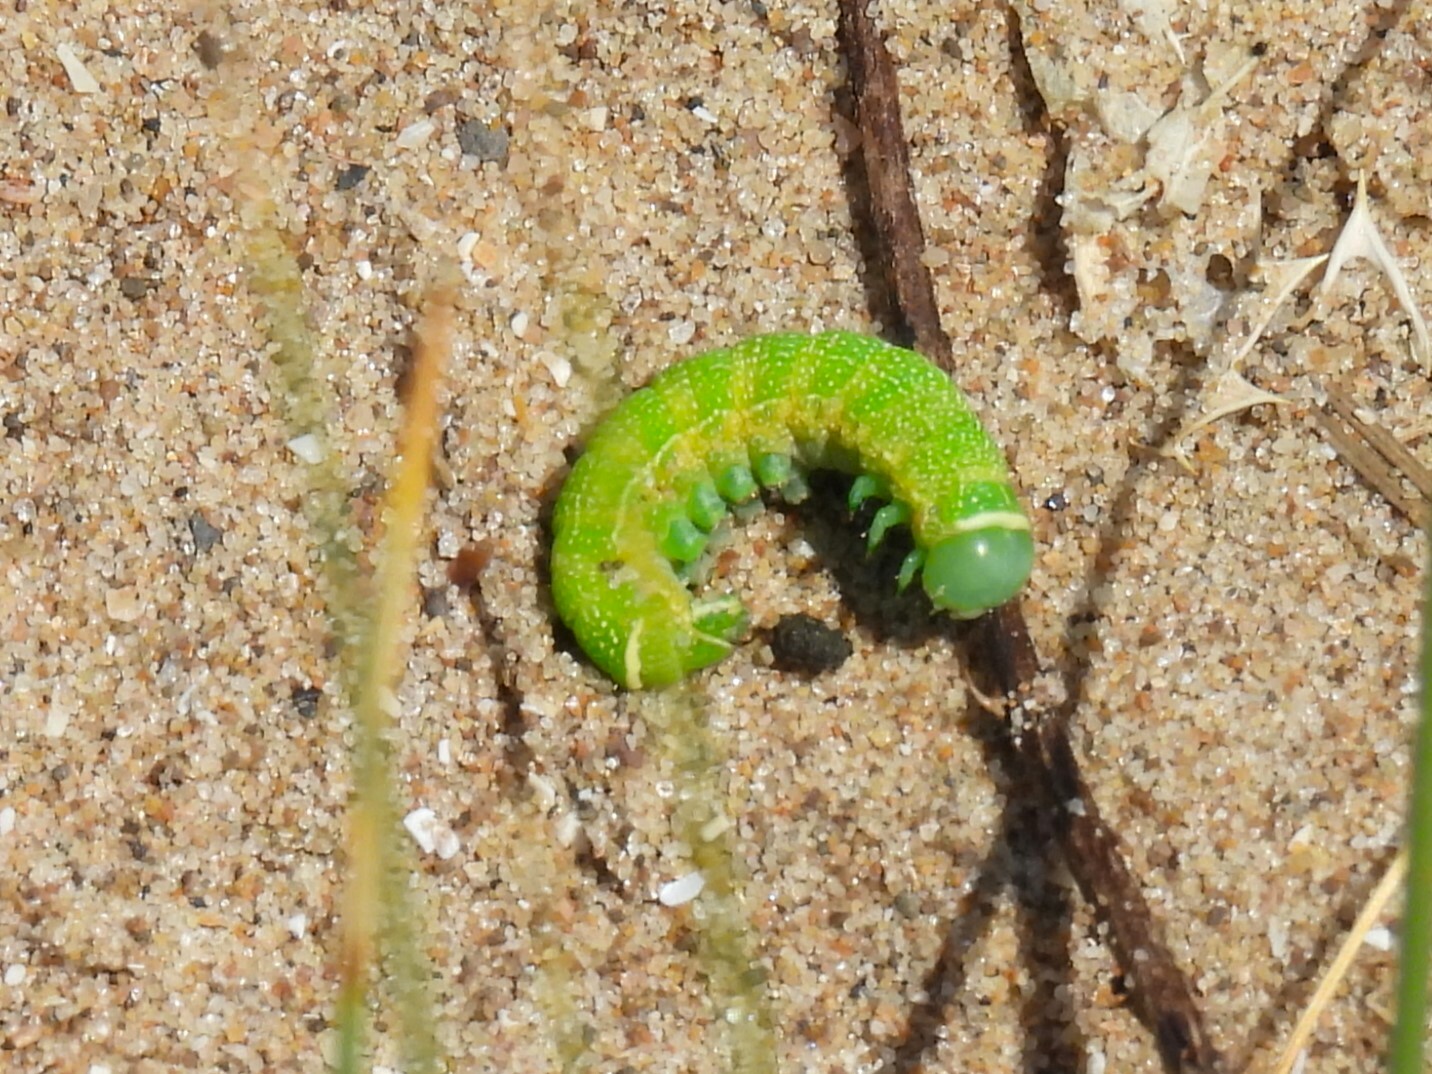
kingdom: Animalia
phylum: Arthropoda
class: Insecta
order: Lepidoptera
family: Noctuidae
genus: Phlogophora
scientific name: Phlogophora meticulosa
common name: Angle shades
